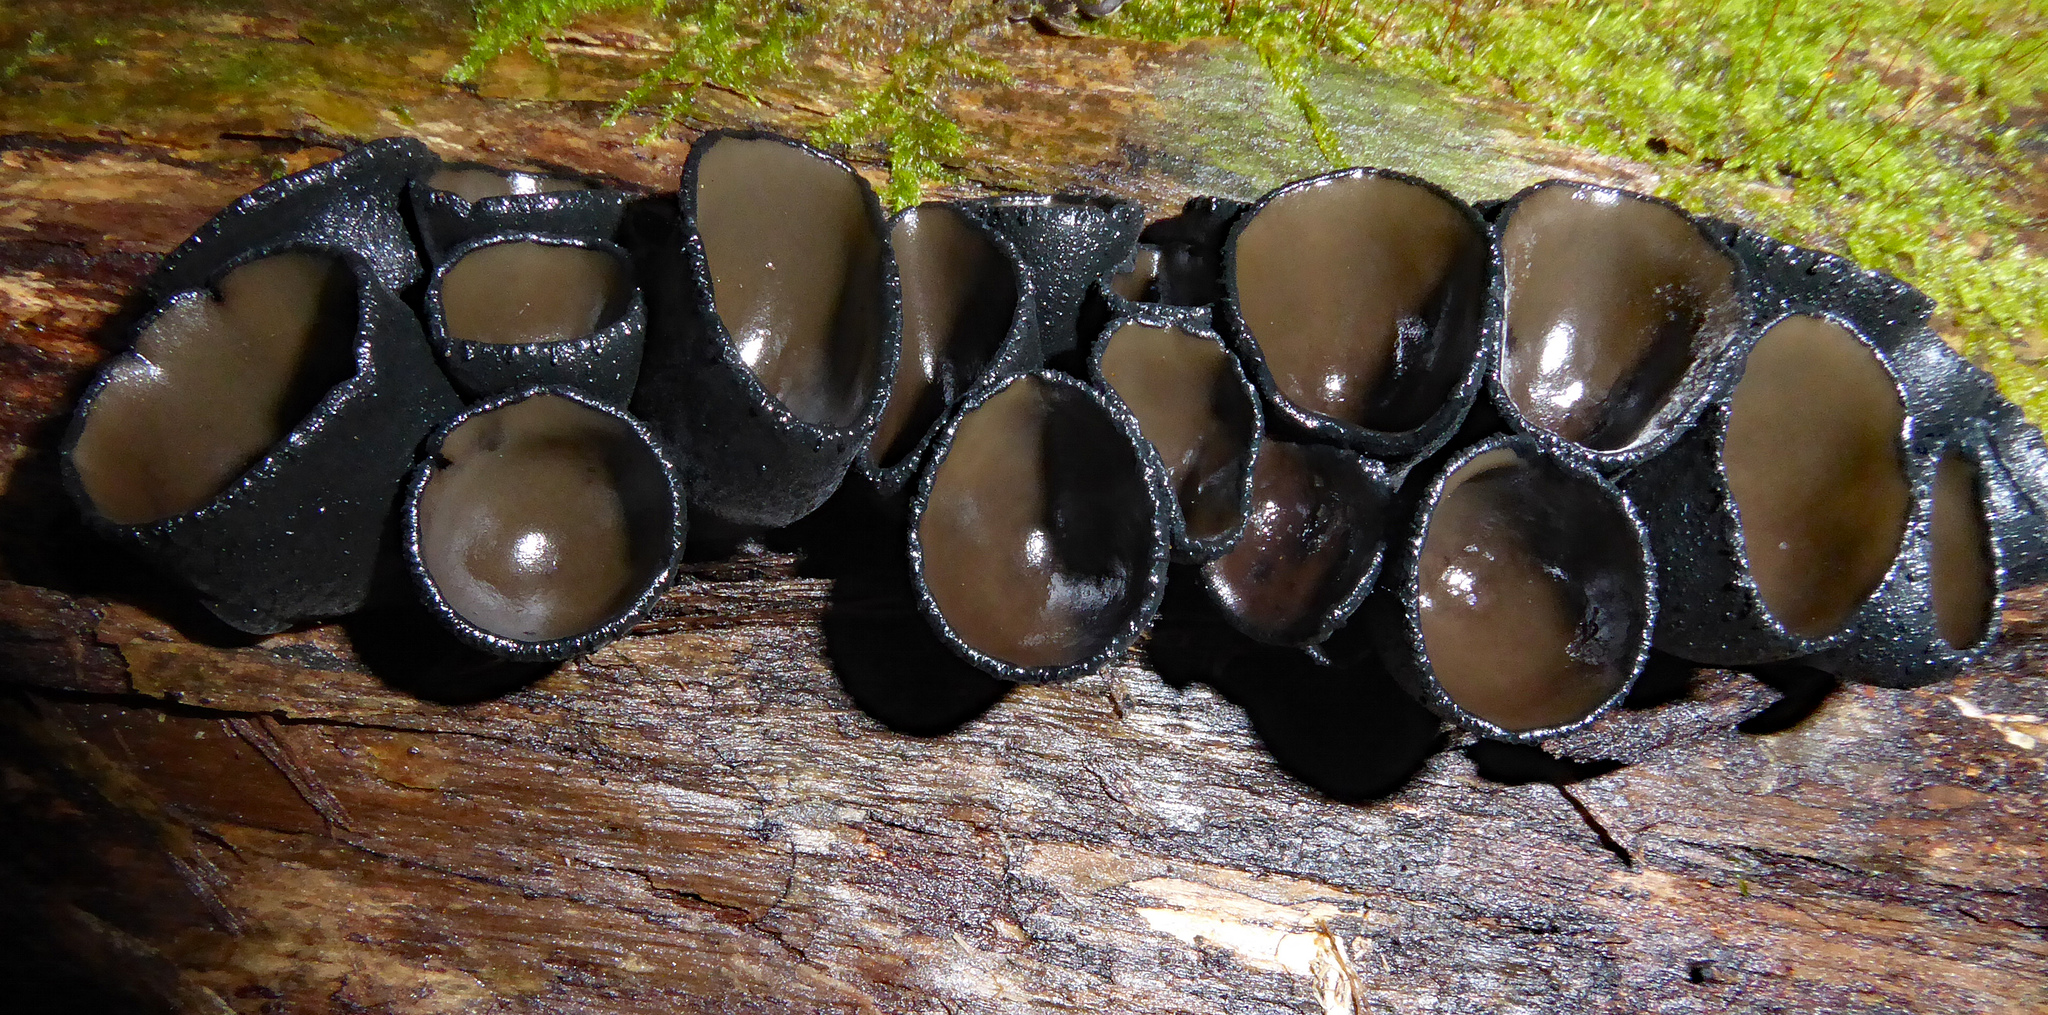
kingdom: Fungi
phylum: Ascomycota
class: Pezizomycetes
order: Pezizales
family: Sarcosomataceae
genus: Plectania
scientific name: Plectania campylospora
